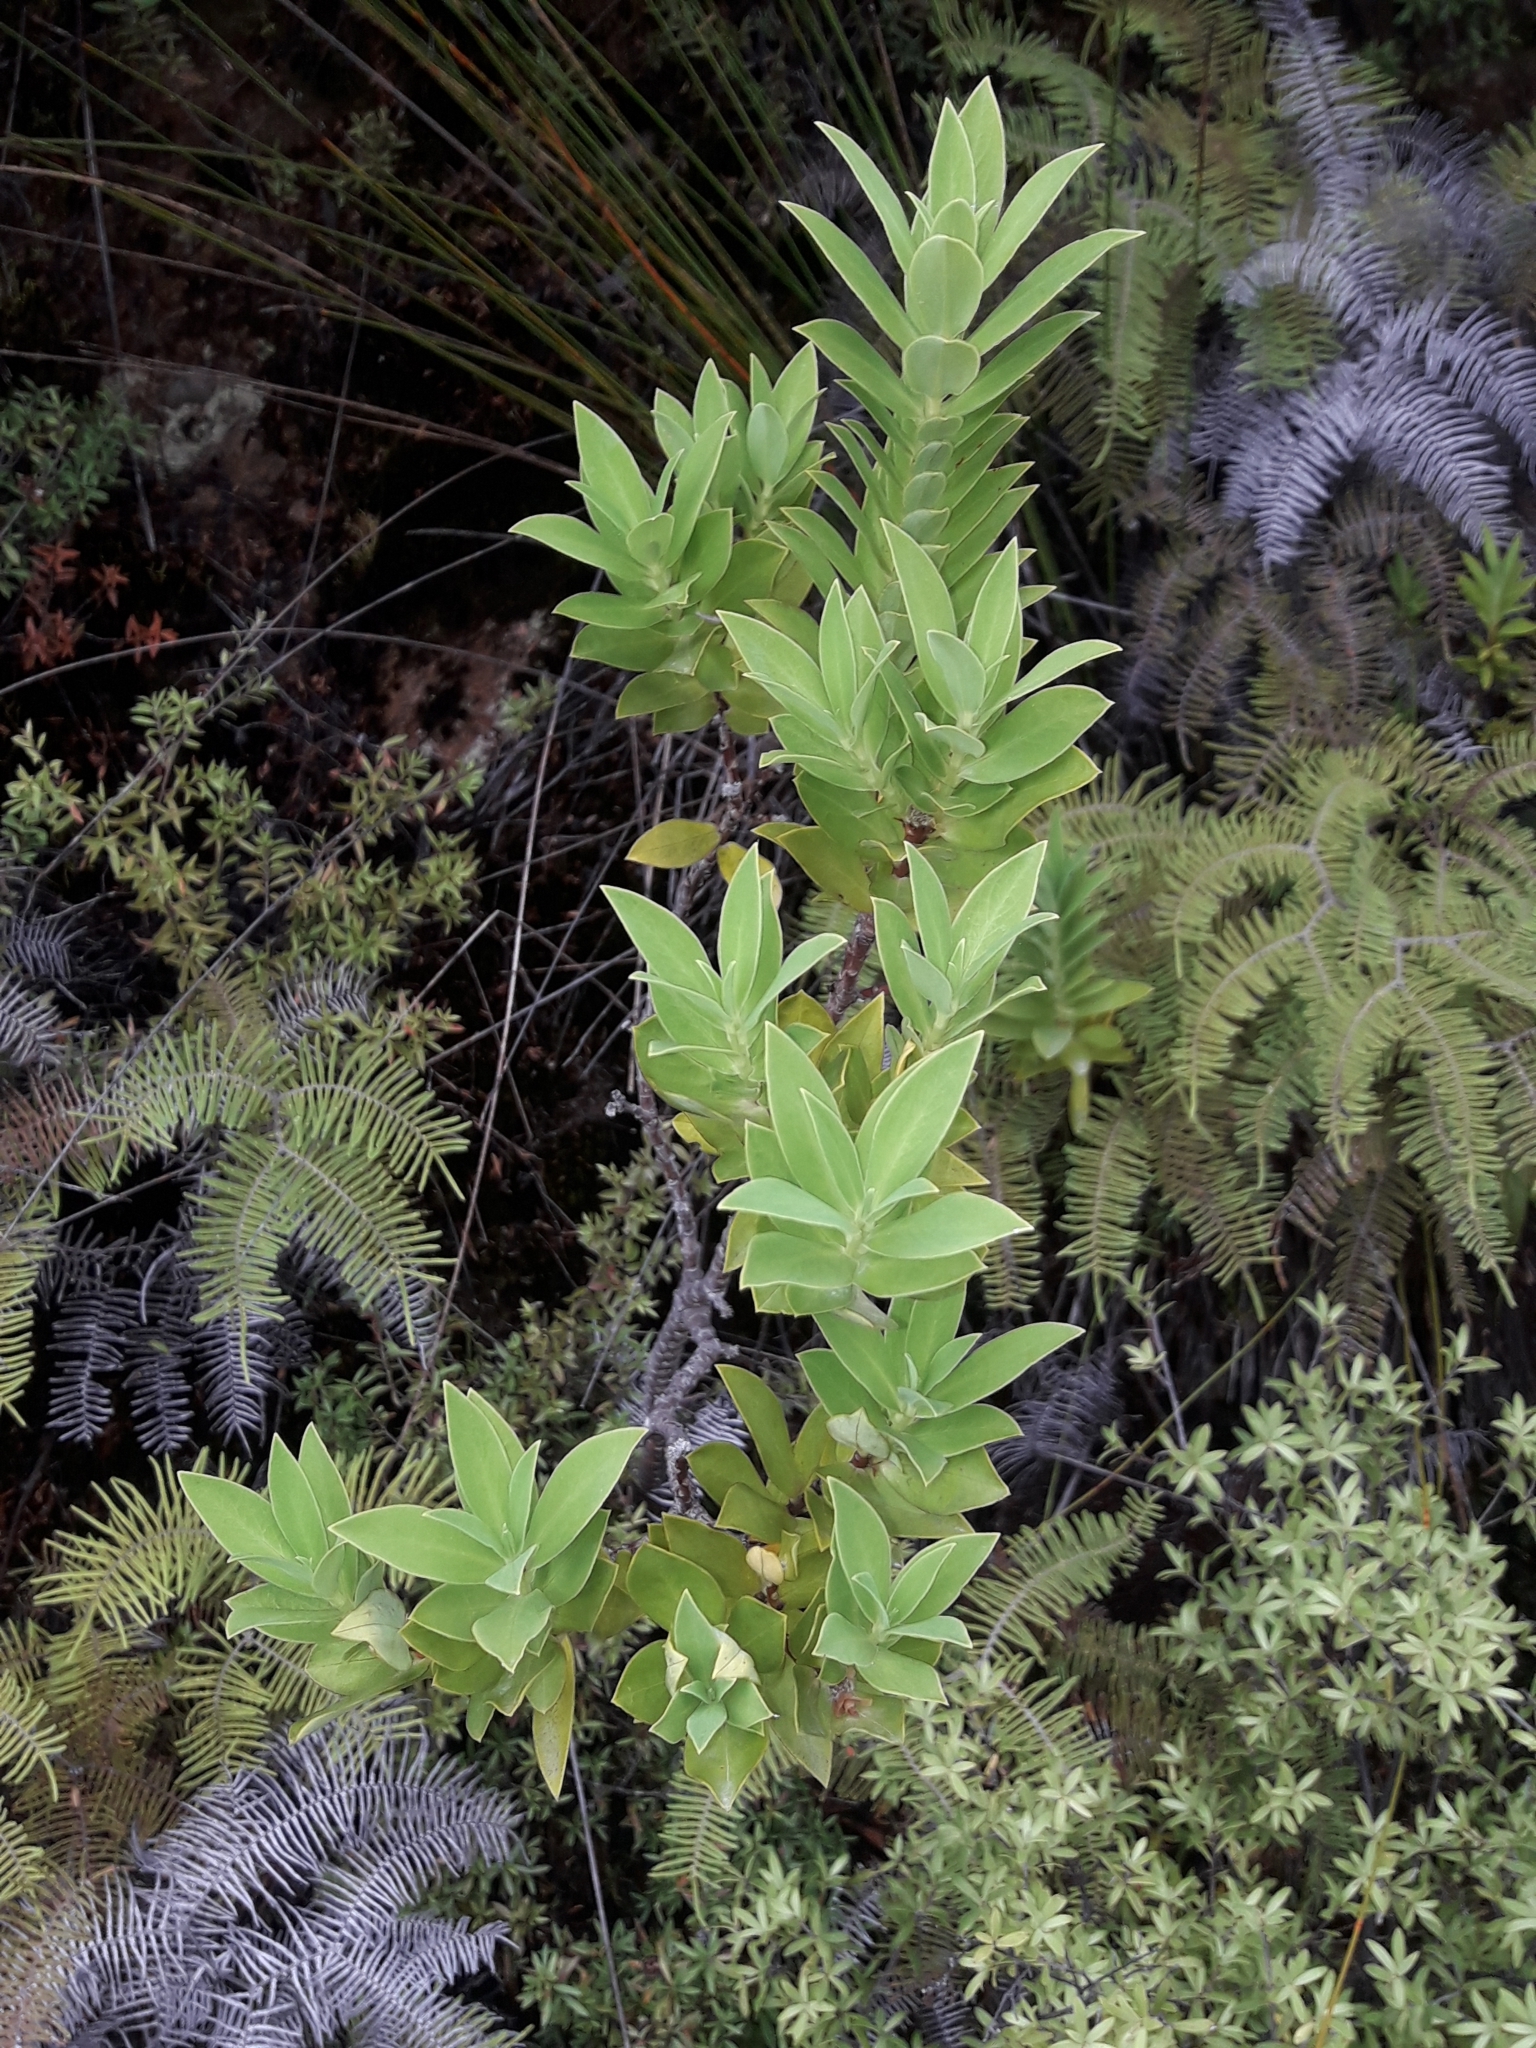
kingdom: Plantae
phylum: Tracheophyta
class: Magnoliopsida
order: Malvales
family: Thymelaeaceae
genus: Pimelea
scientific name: Pimelea longifolia
